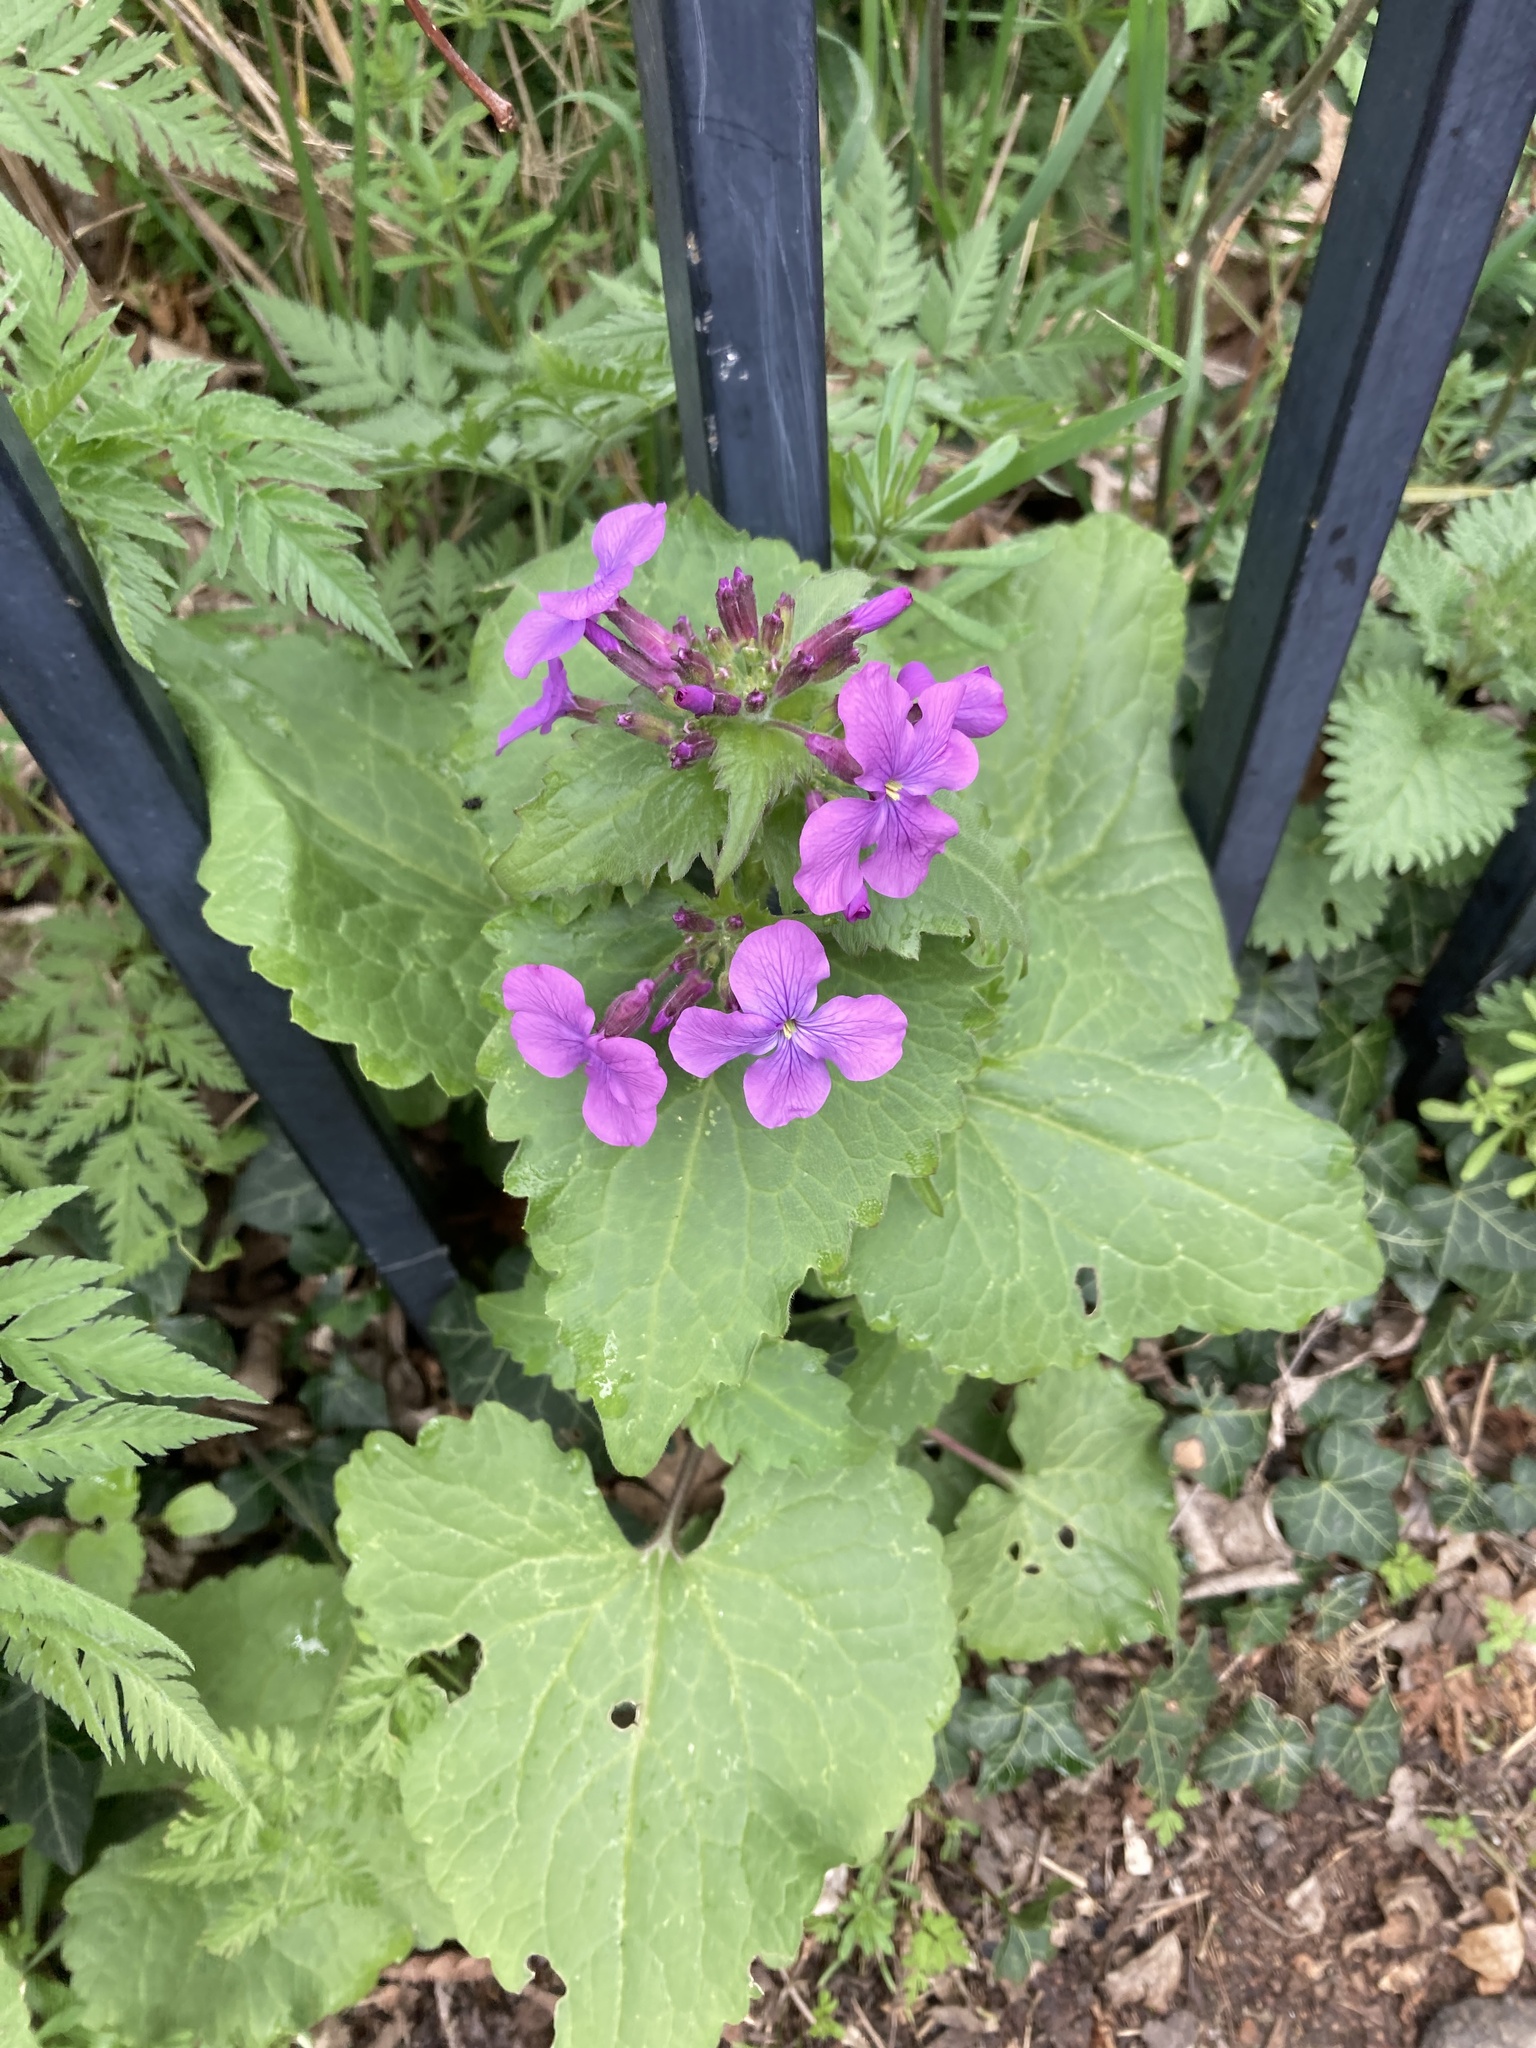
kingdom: Plantae
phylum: Tracheophyta
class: Magnoliopsida
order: Brassicales
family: Brassicaceae
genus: Lunaria
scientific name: Lunaria annua
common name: Honesty
